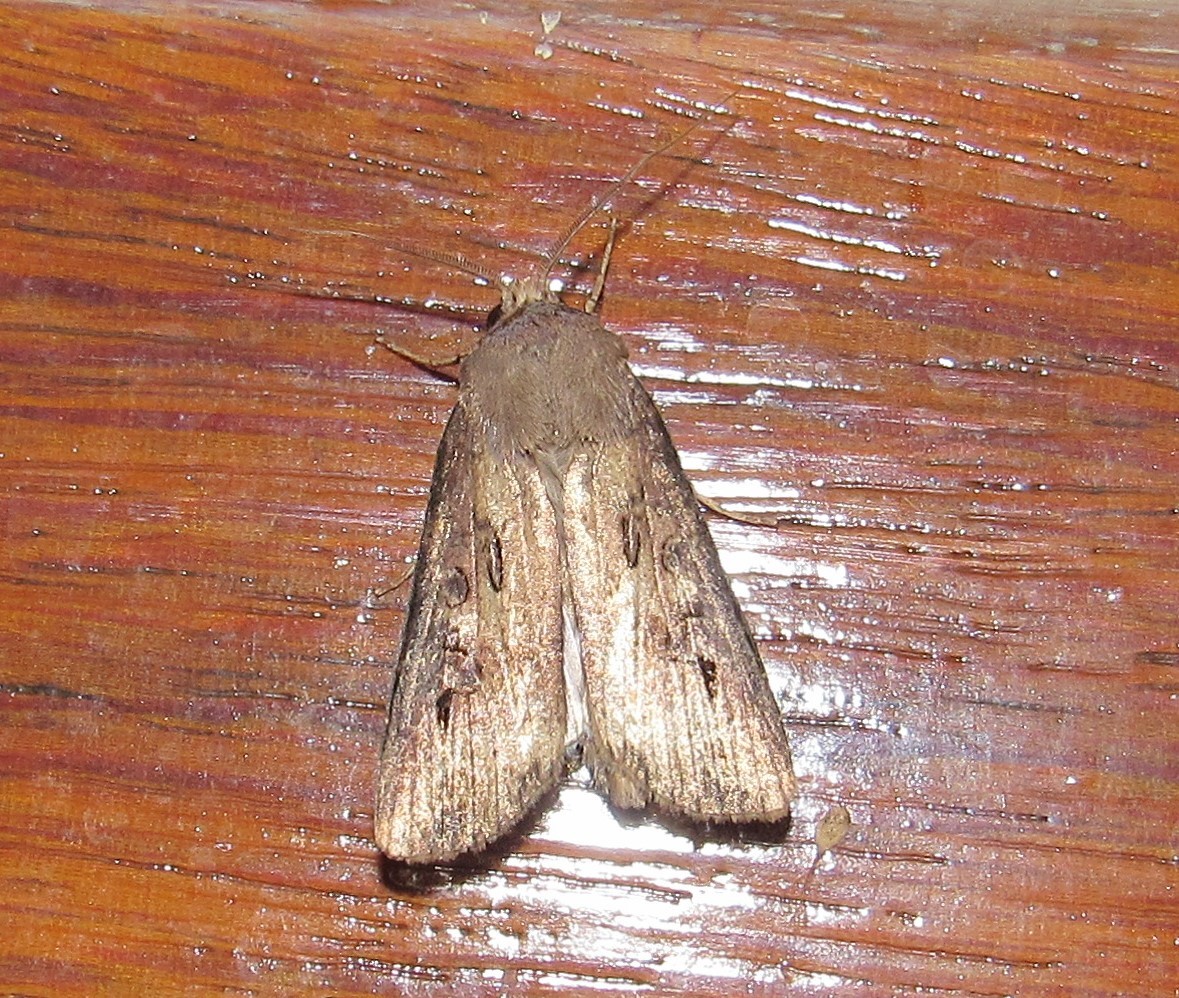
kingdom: Animalia
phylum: Arthropoda
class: Insecta
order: Lepidoptera
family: Noctuidae
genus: Agrotis
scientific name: Agrotis ipsilon
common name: Dark sword-grass
